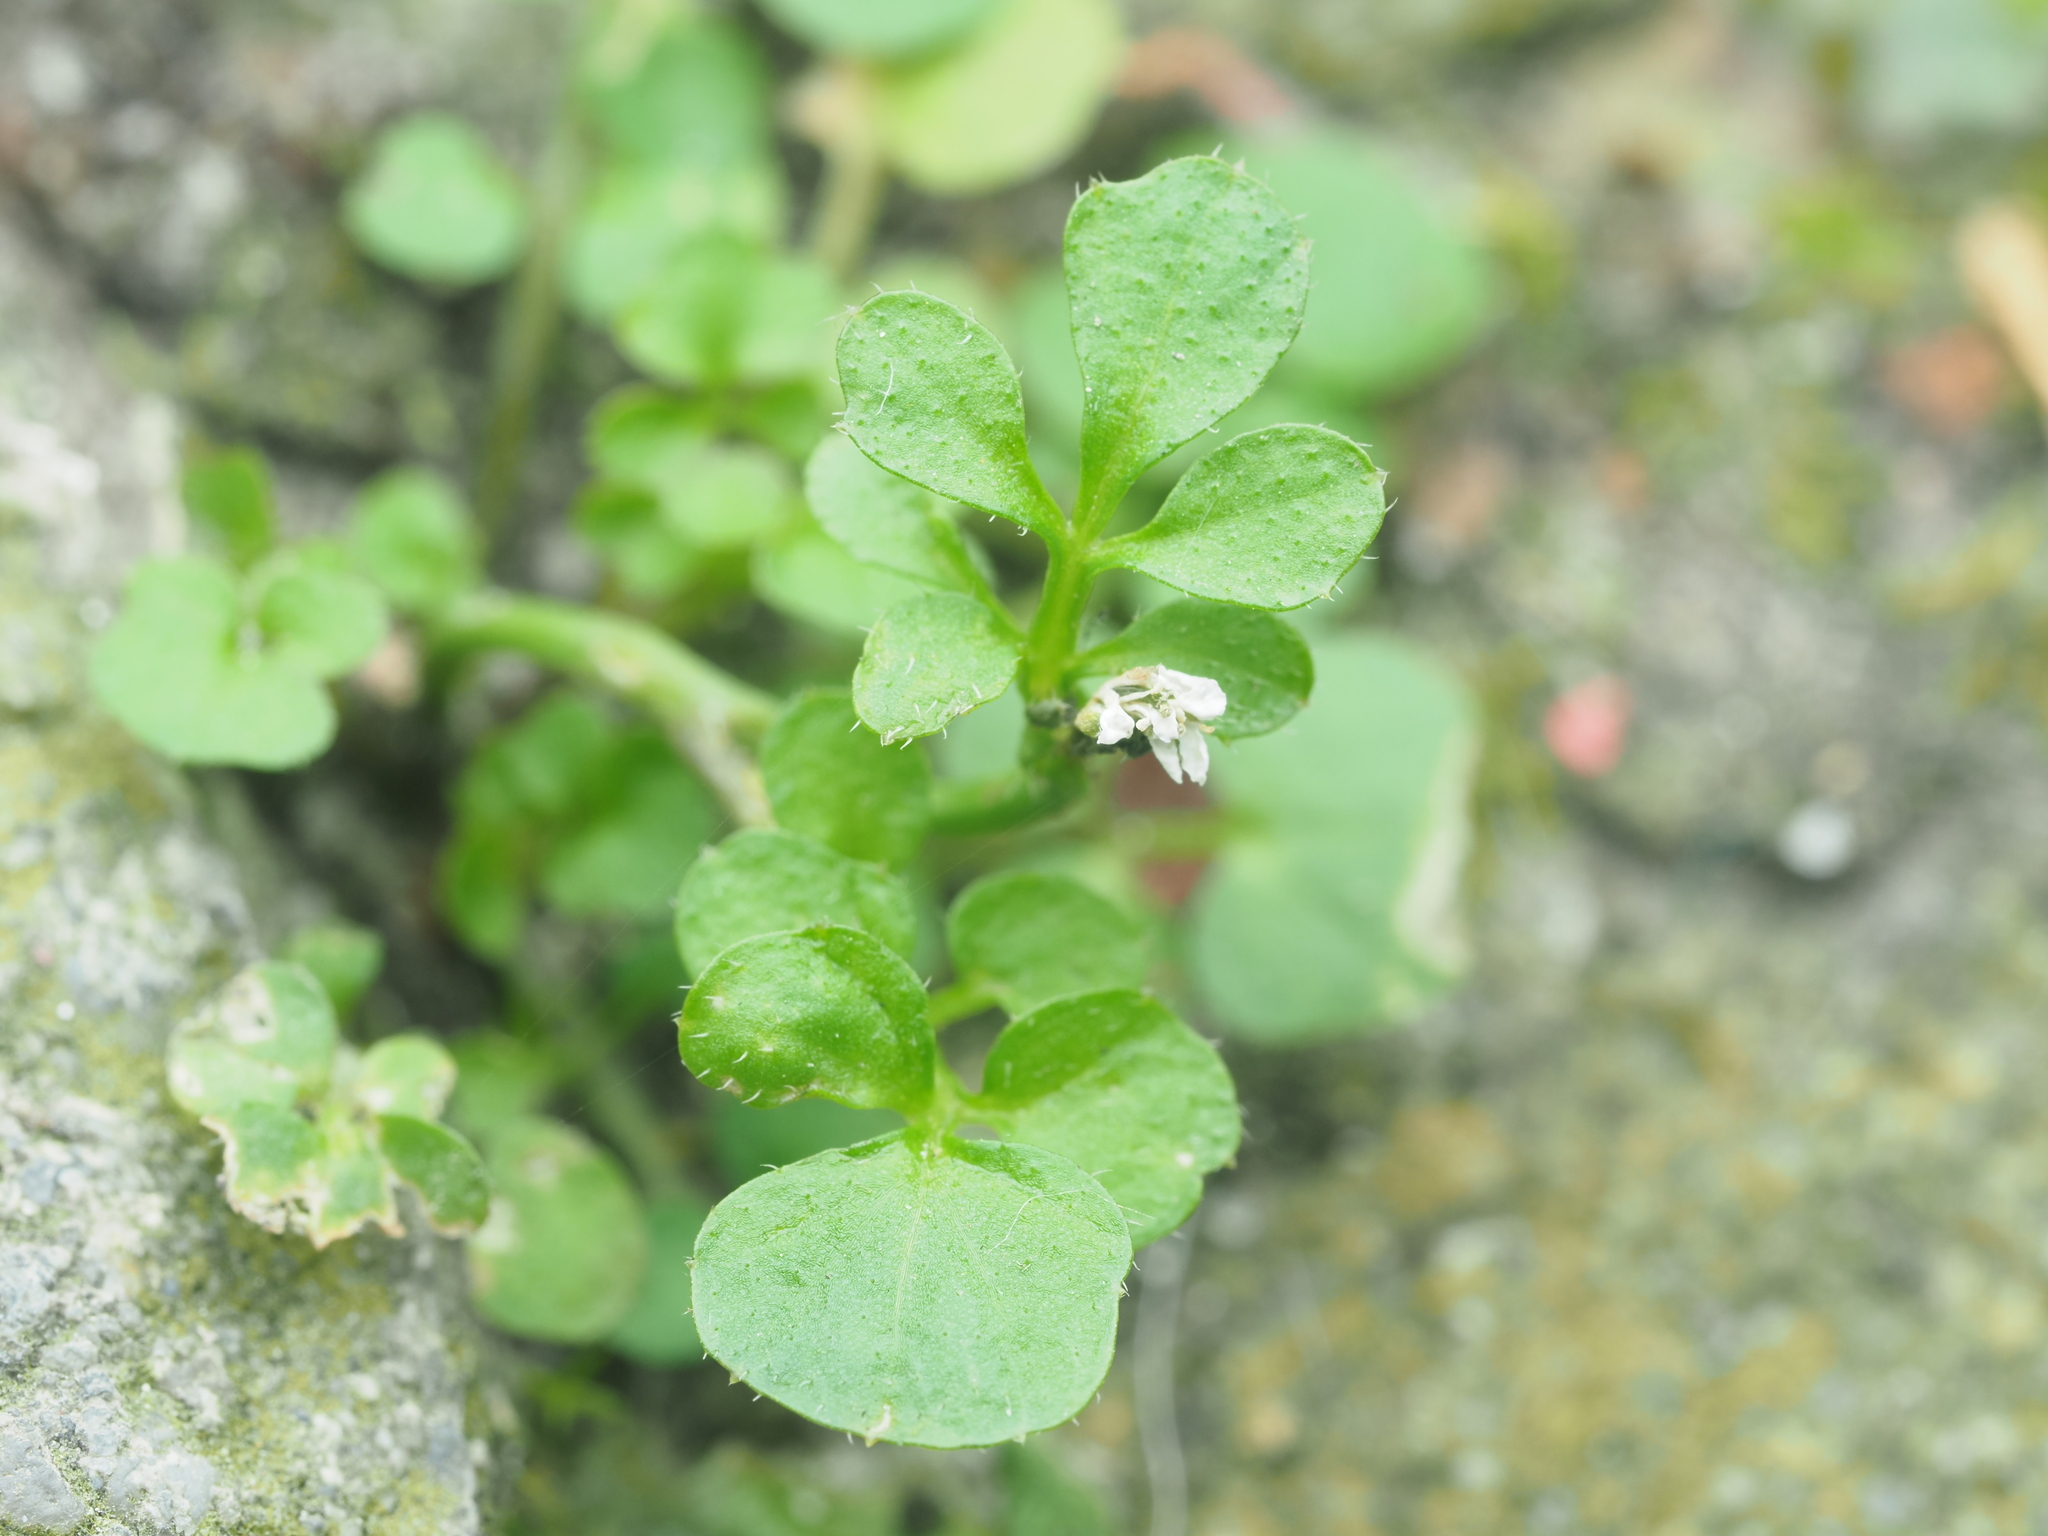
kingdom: Plantae
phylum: Tracheophyta
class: Magnoliopsida
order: Brassicales
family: Brassicaceae
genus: Cardamine
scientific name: Cardamine hirsuta
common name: Hairy bittercress
